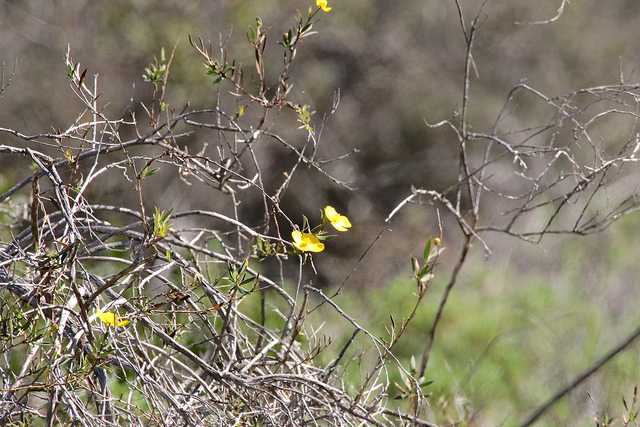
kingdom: Plantae
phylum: Tracheophyta
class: Magnoliopsida
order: Ranunculales
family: Papaveraceae
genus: Dendromecon
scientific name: Dendromecon rigida
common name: Tree poppy
